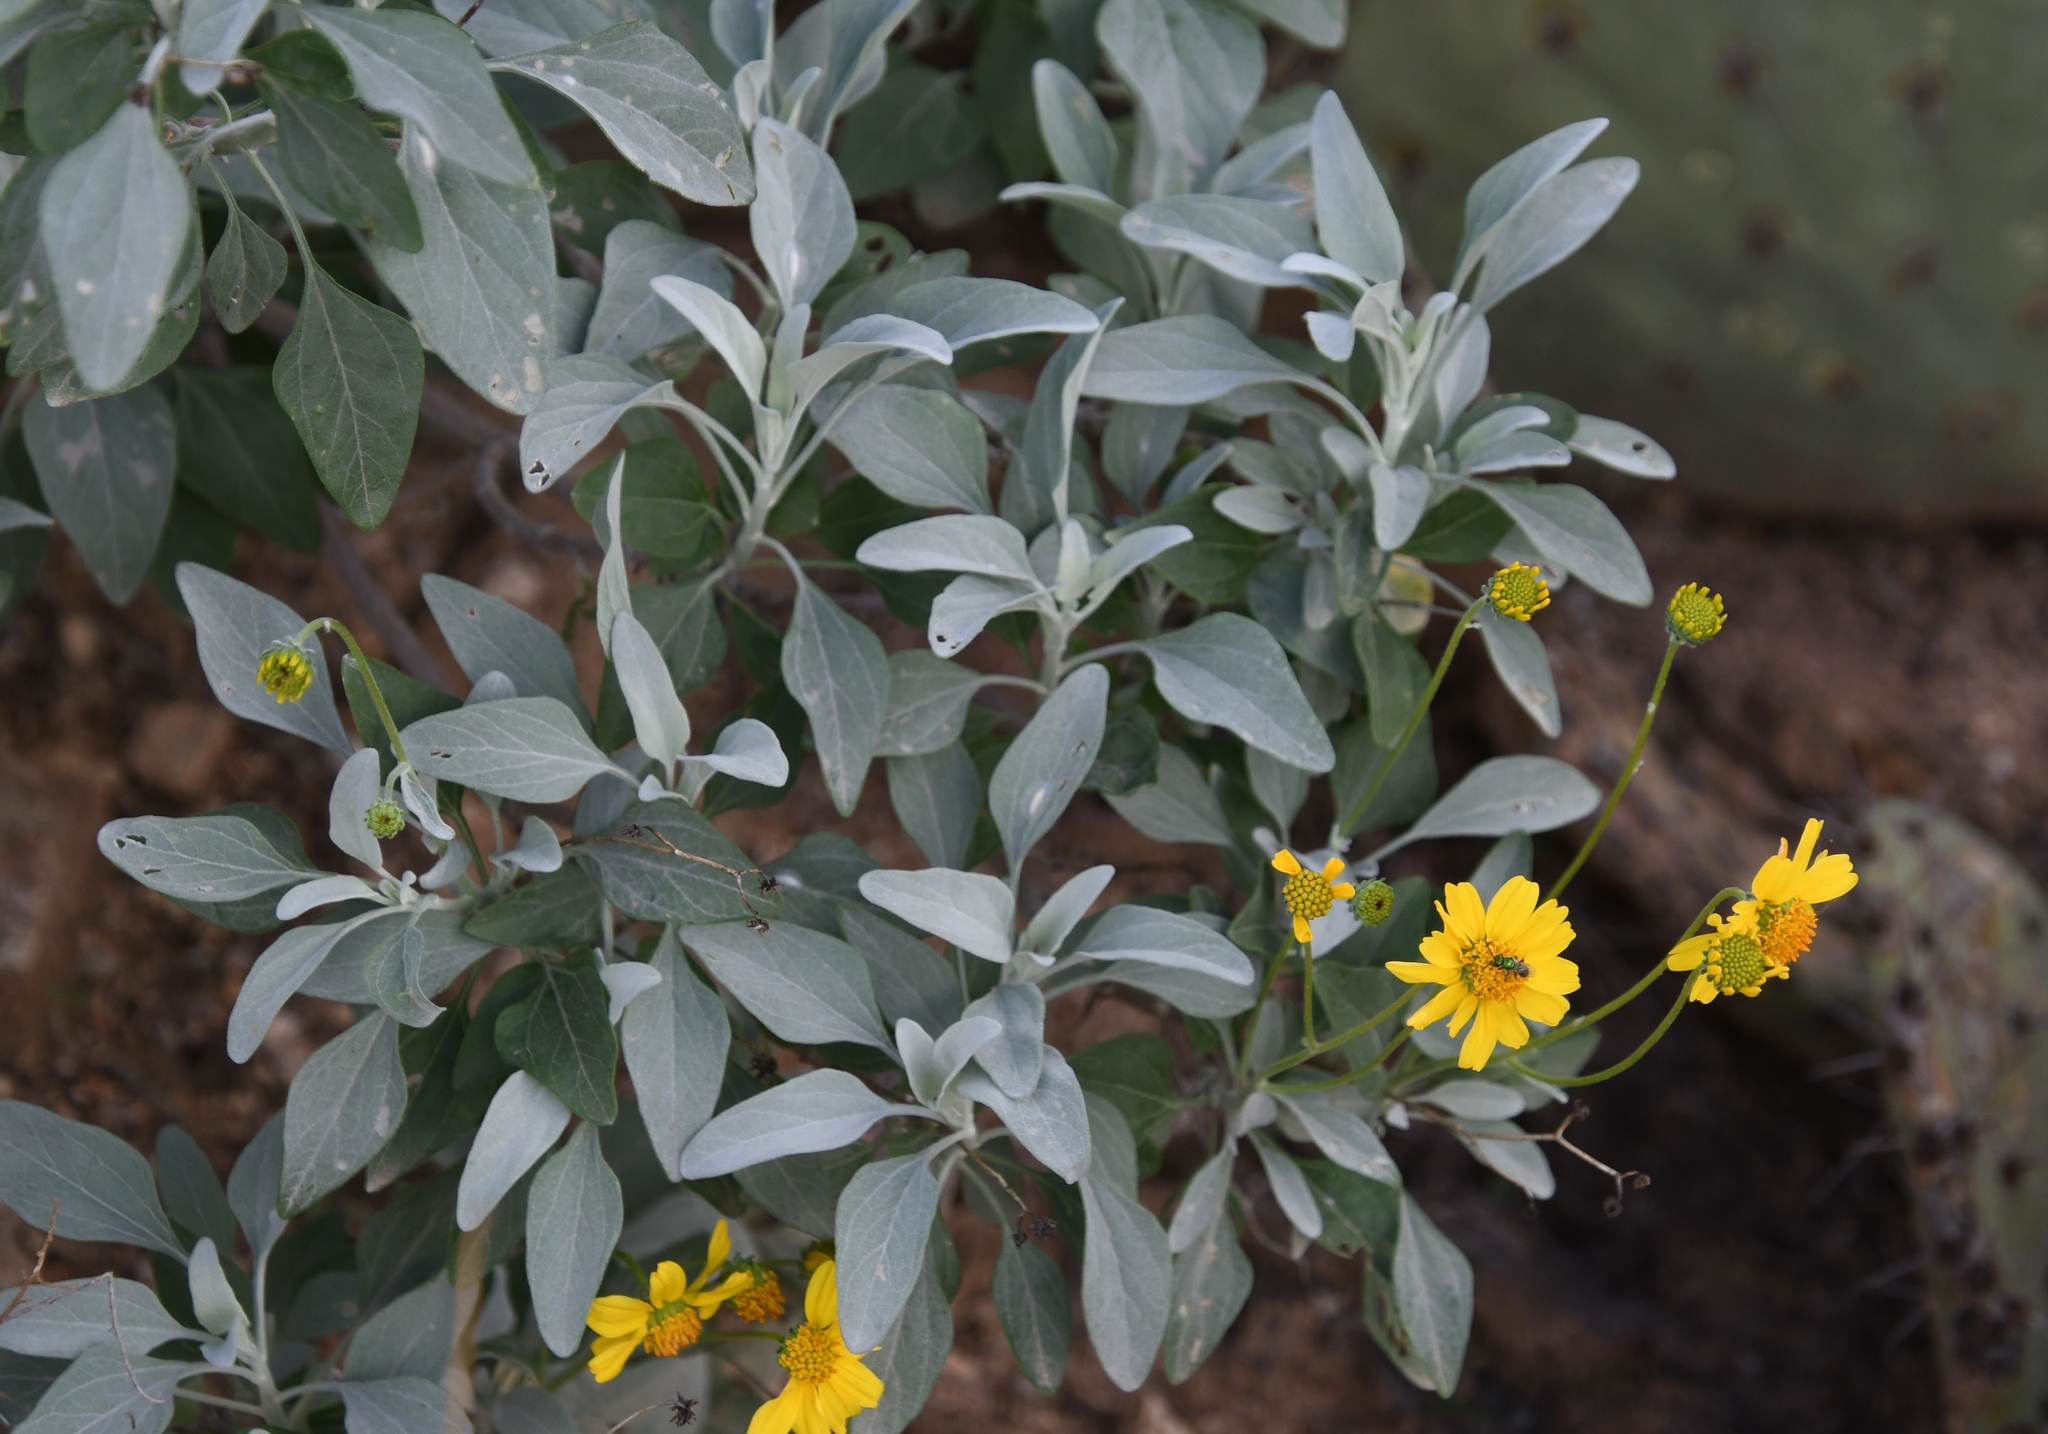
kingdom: Plantae
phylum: Tracheophyta
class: Magnoliopsida
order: Asterales
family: Asteraceae
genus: Encelia
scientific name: Encelia farinosa
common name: Brittlebush
